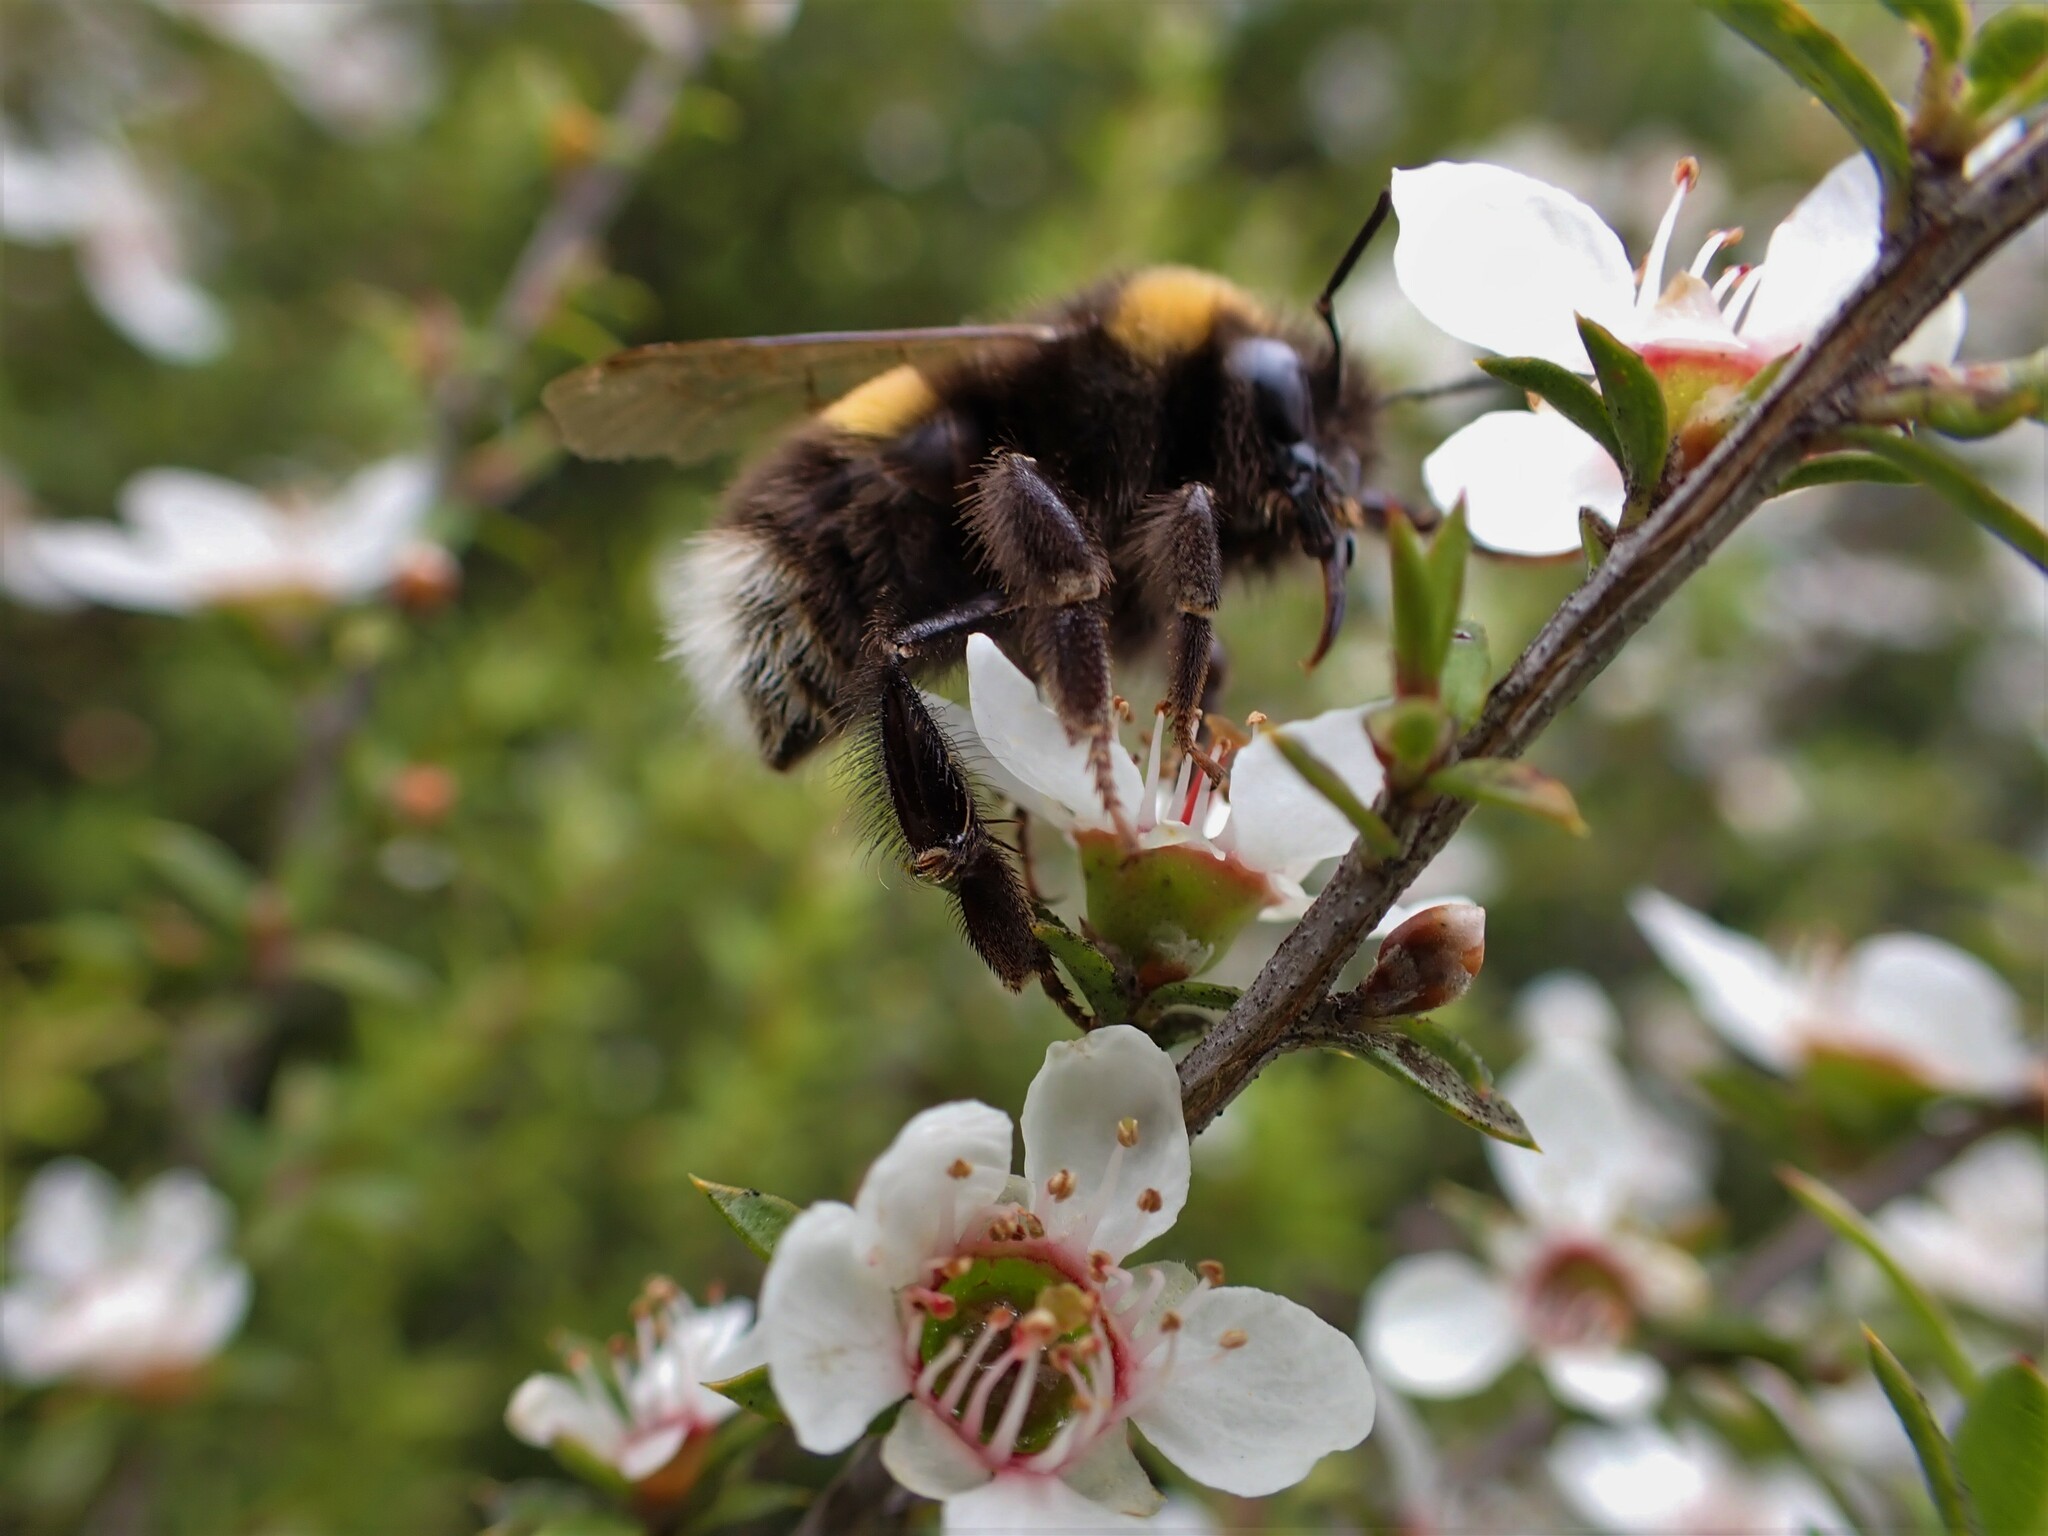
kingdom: Animalia
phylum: Arthropoda
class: Insecta
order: Hymenoptera
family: Apidae
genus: Bombus
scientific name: Bombus terrestris
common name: Buff-tailed bumblebee
